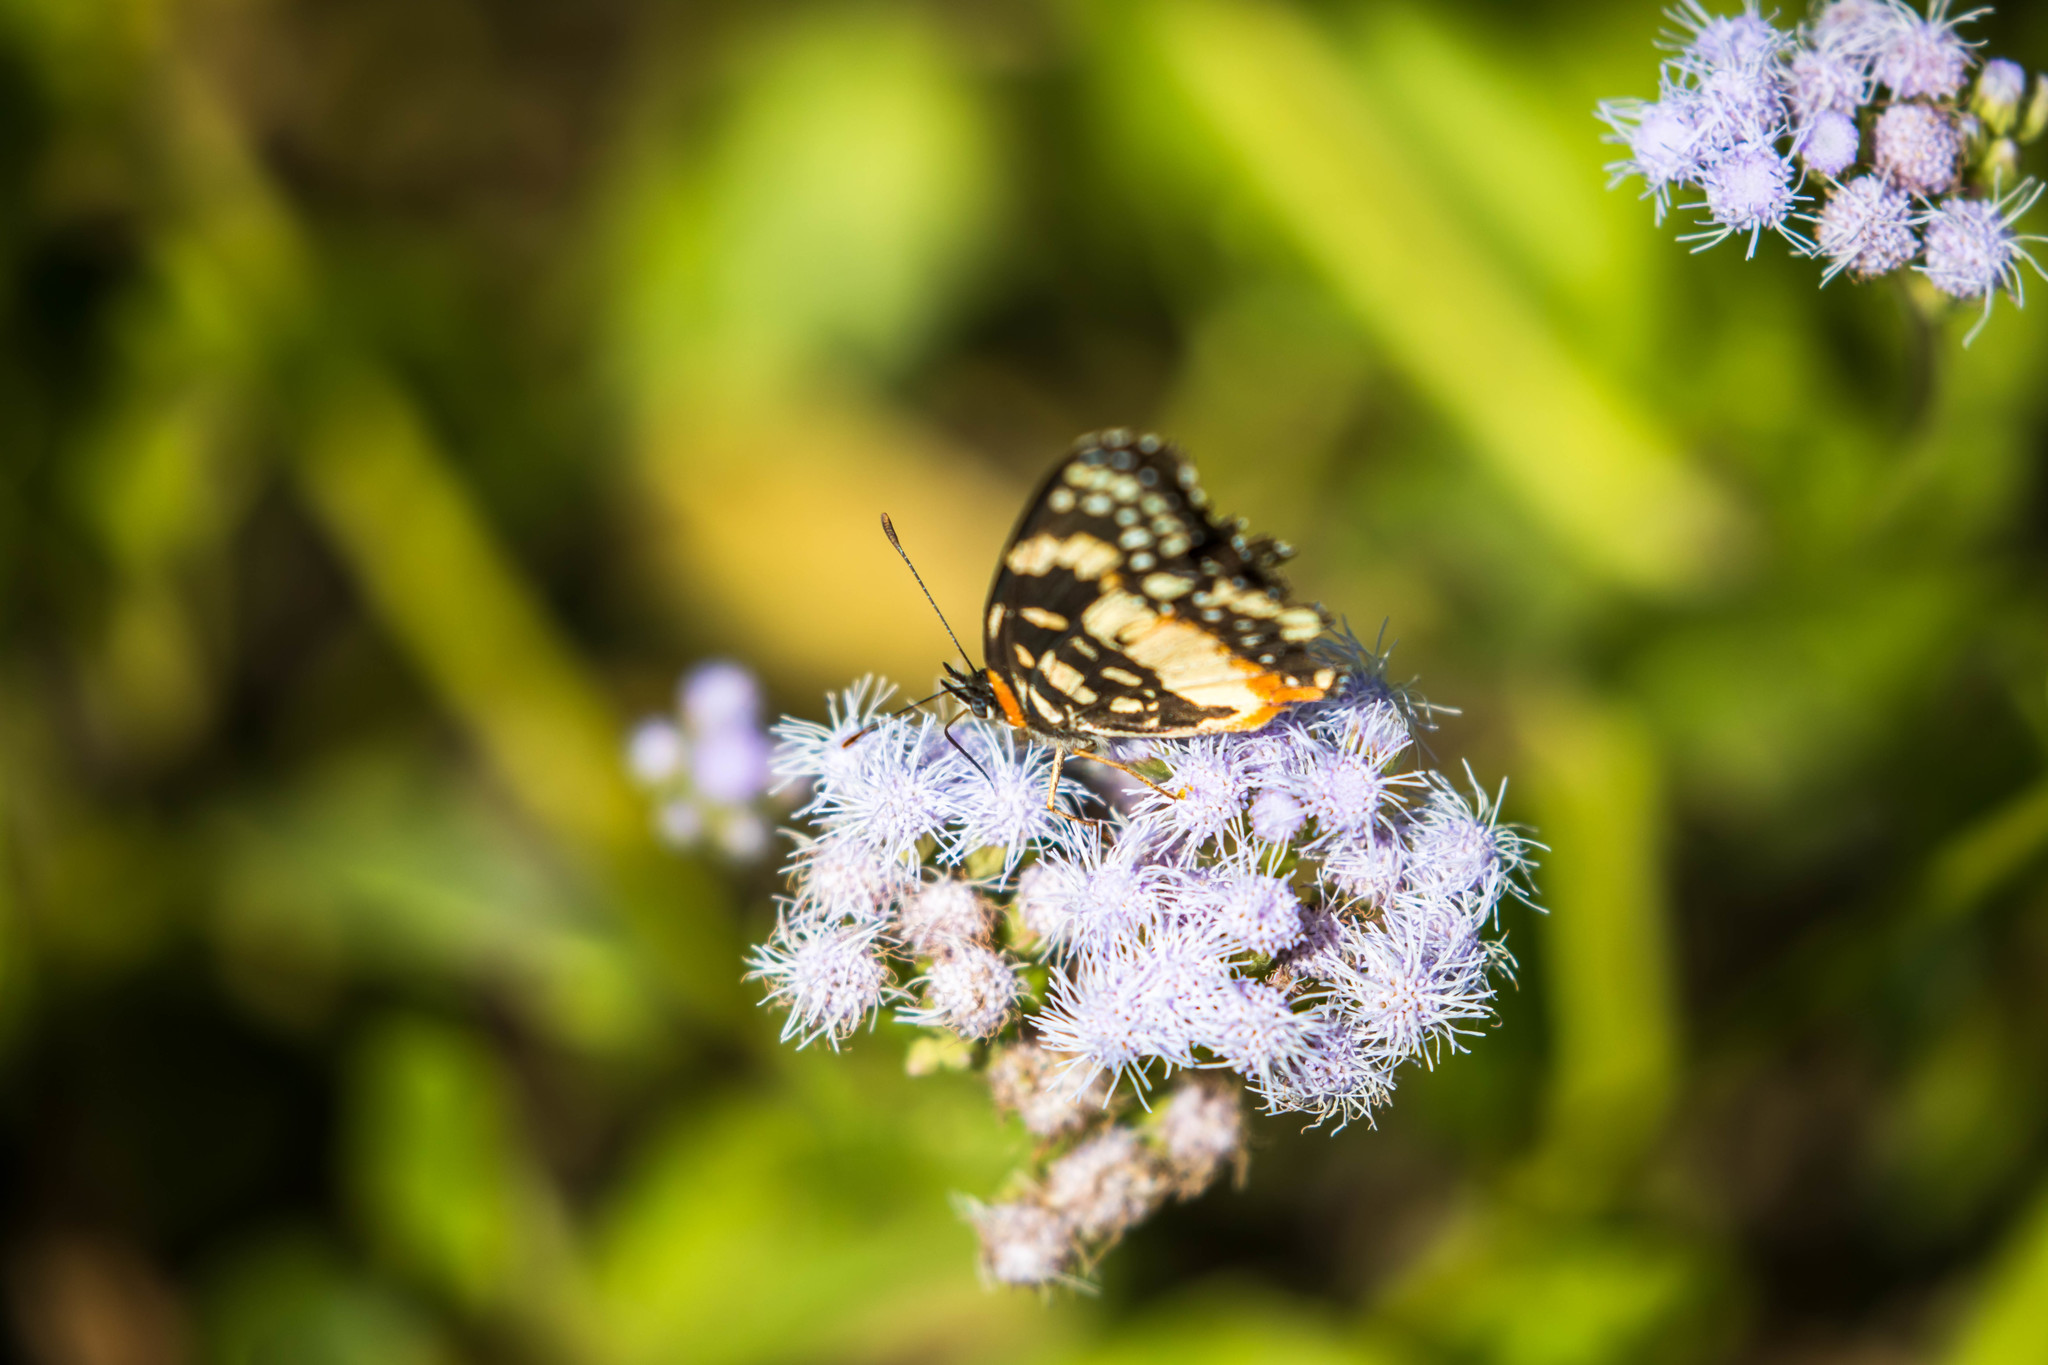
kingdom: Animalia
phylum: Arthropoda
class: Insecta
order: Lepidoptera
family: Nymphalidae
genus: Chlosyne
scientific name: Chlosyne lacinia
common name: Bordered patch
